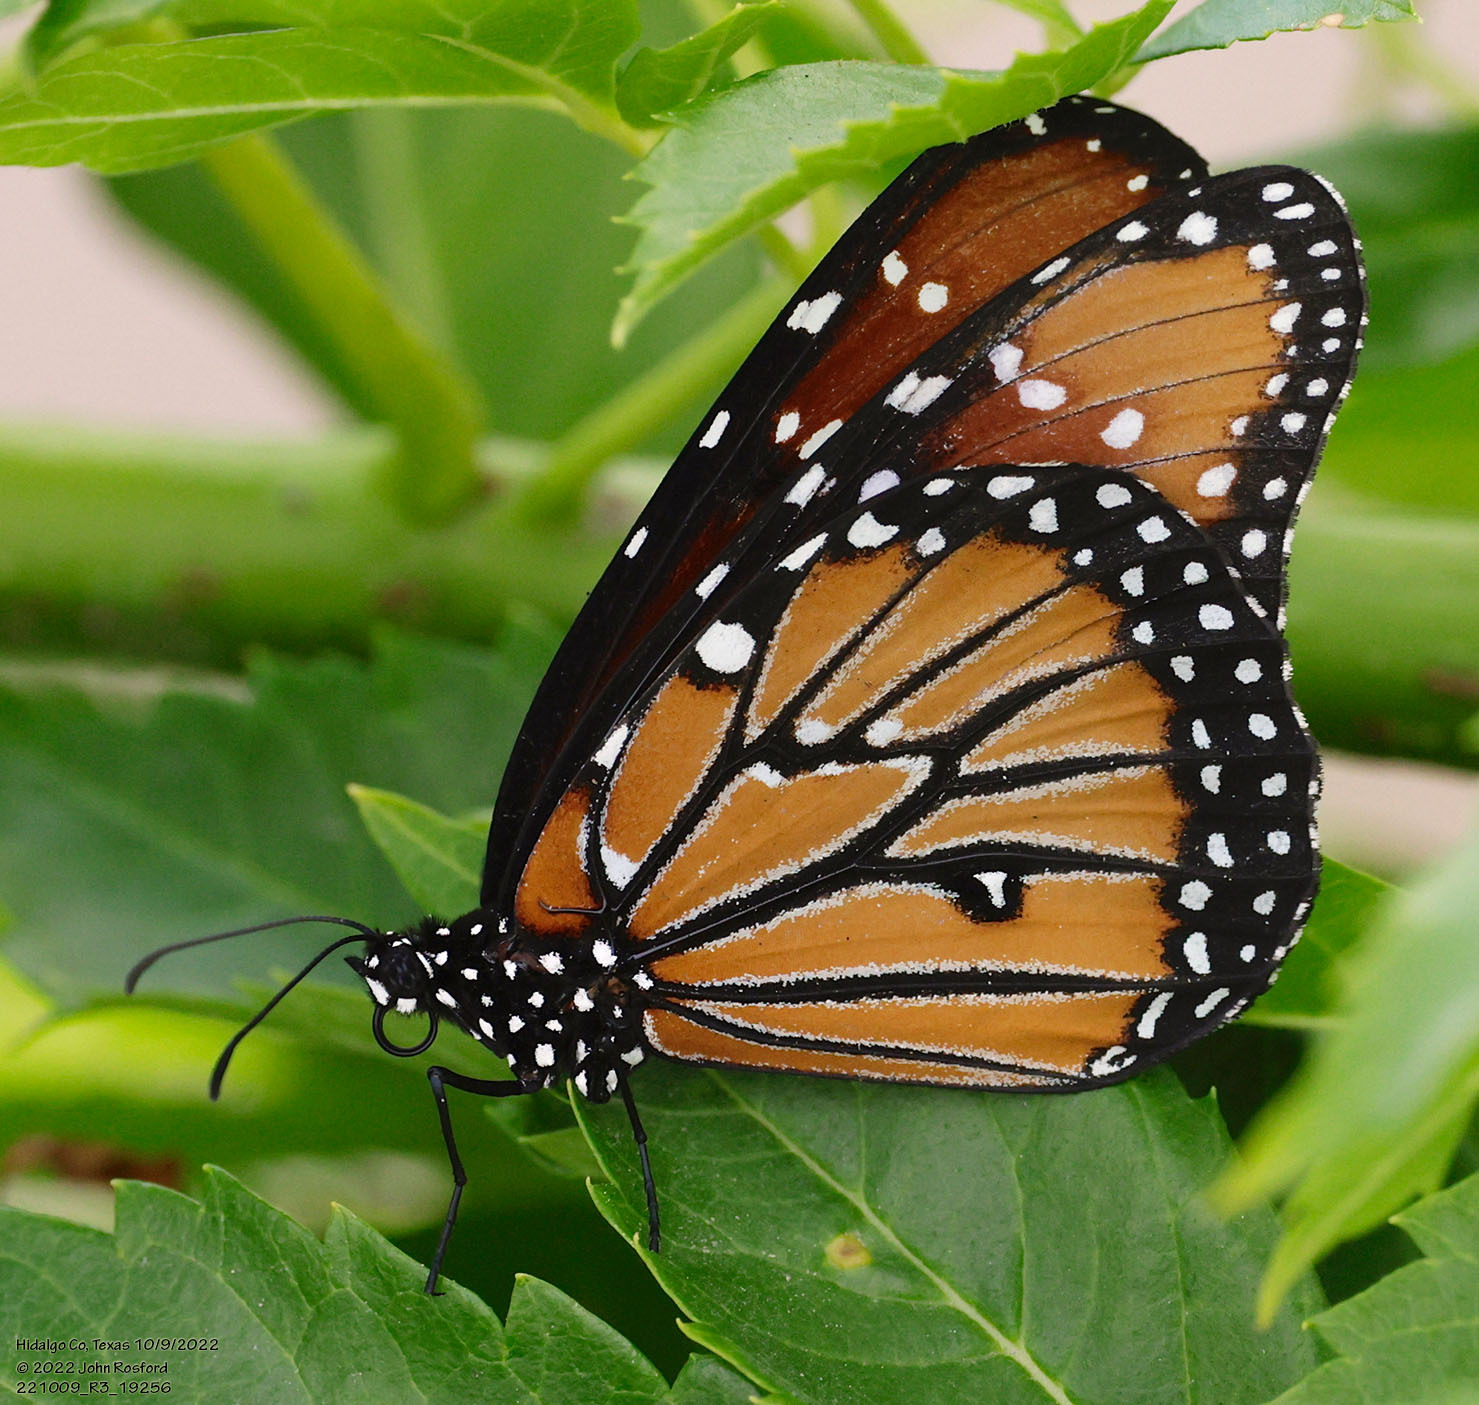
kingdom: Animalia
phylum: Arthropoda
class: Insecta
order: Lepidoptera
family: Nymphalidae
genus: Danaus
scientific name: Danaus gilippus
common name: Queen
